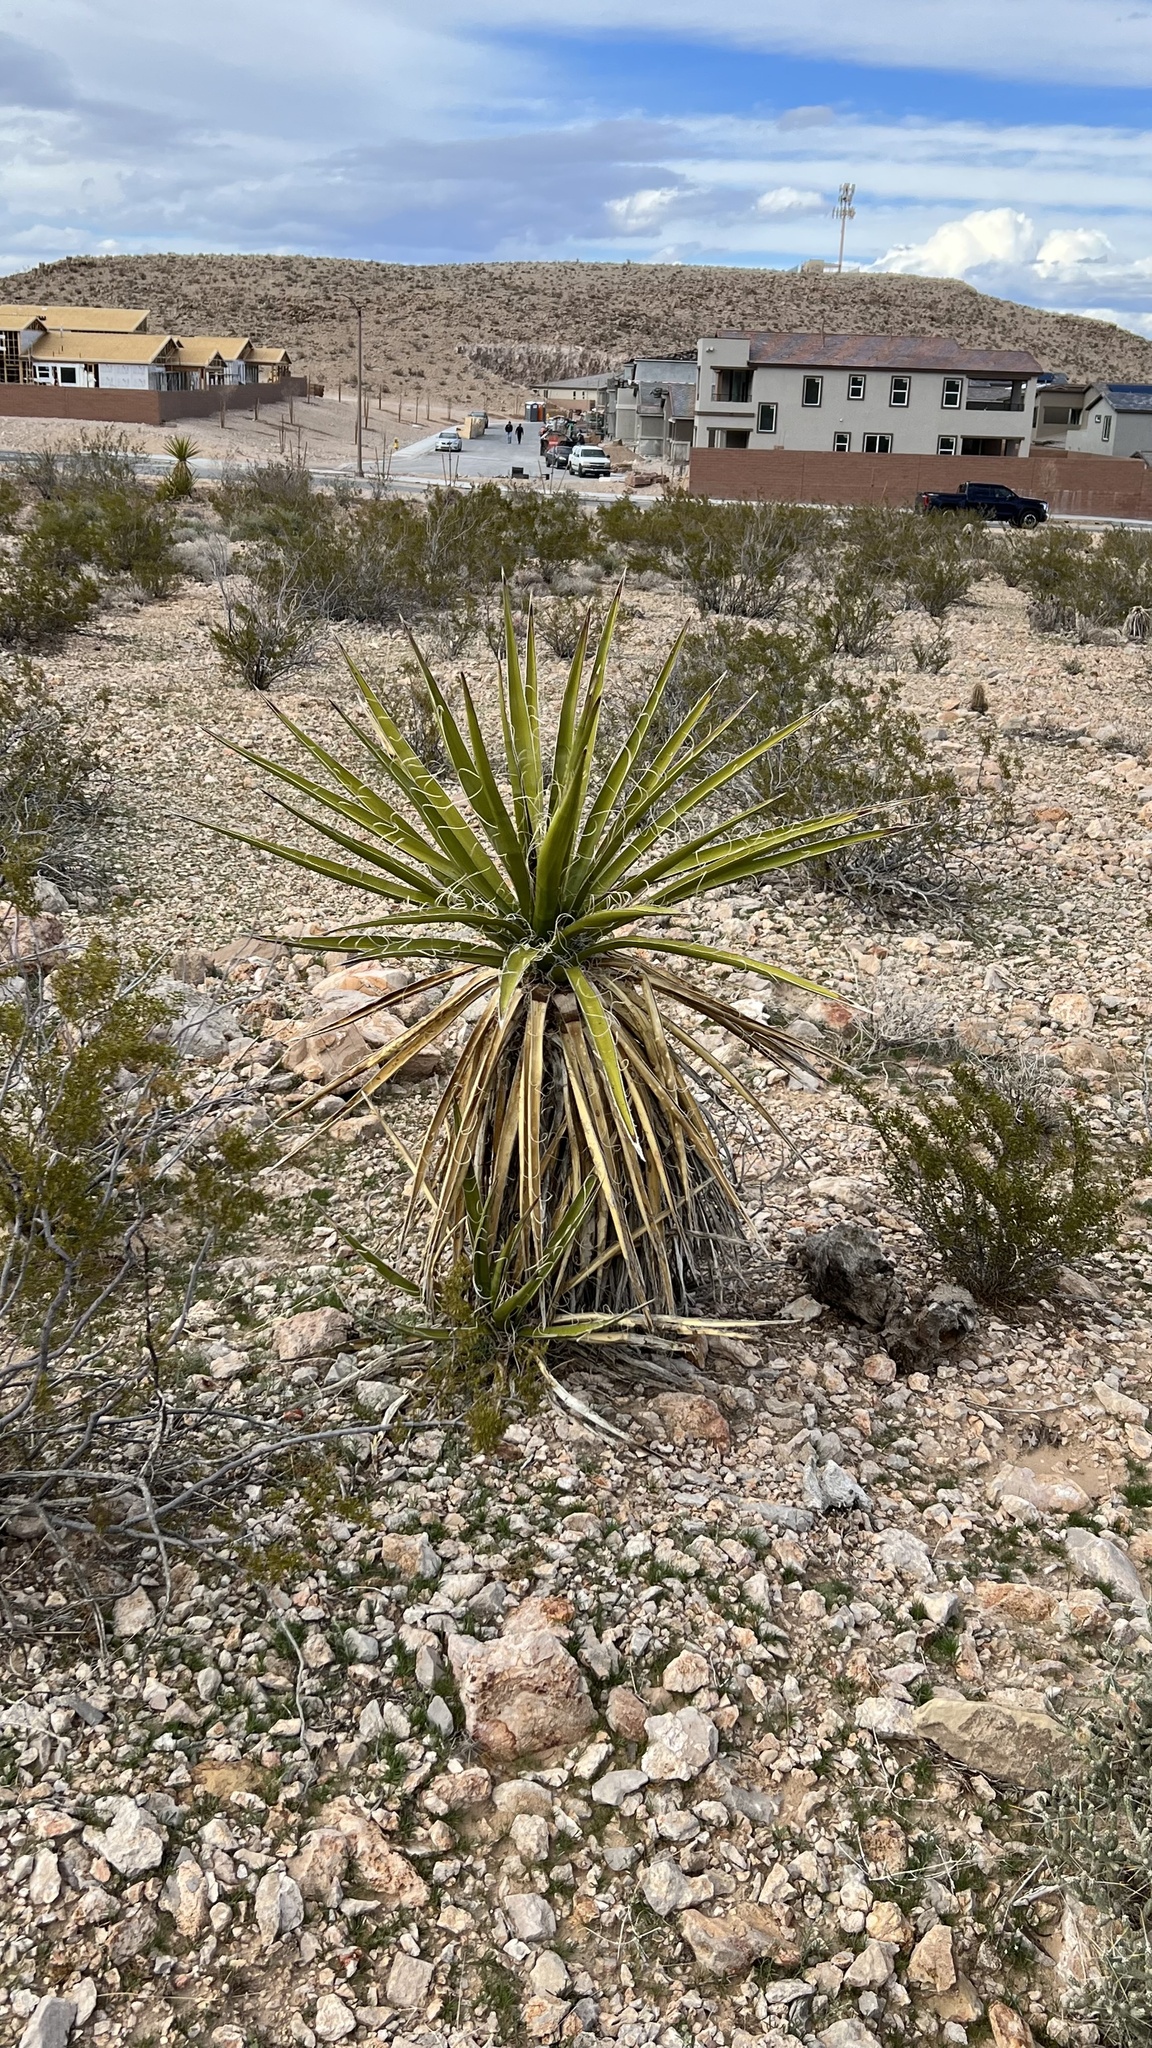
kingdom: Plantae
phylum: Tracheophyta
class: Liliopsida
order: Asparagales
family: Asparagaceae
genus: Yucca
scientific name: Yucca schidigera
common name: Mojave yucca
